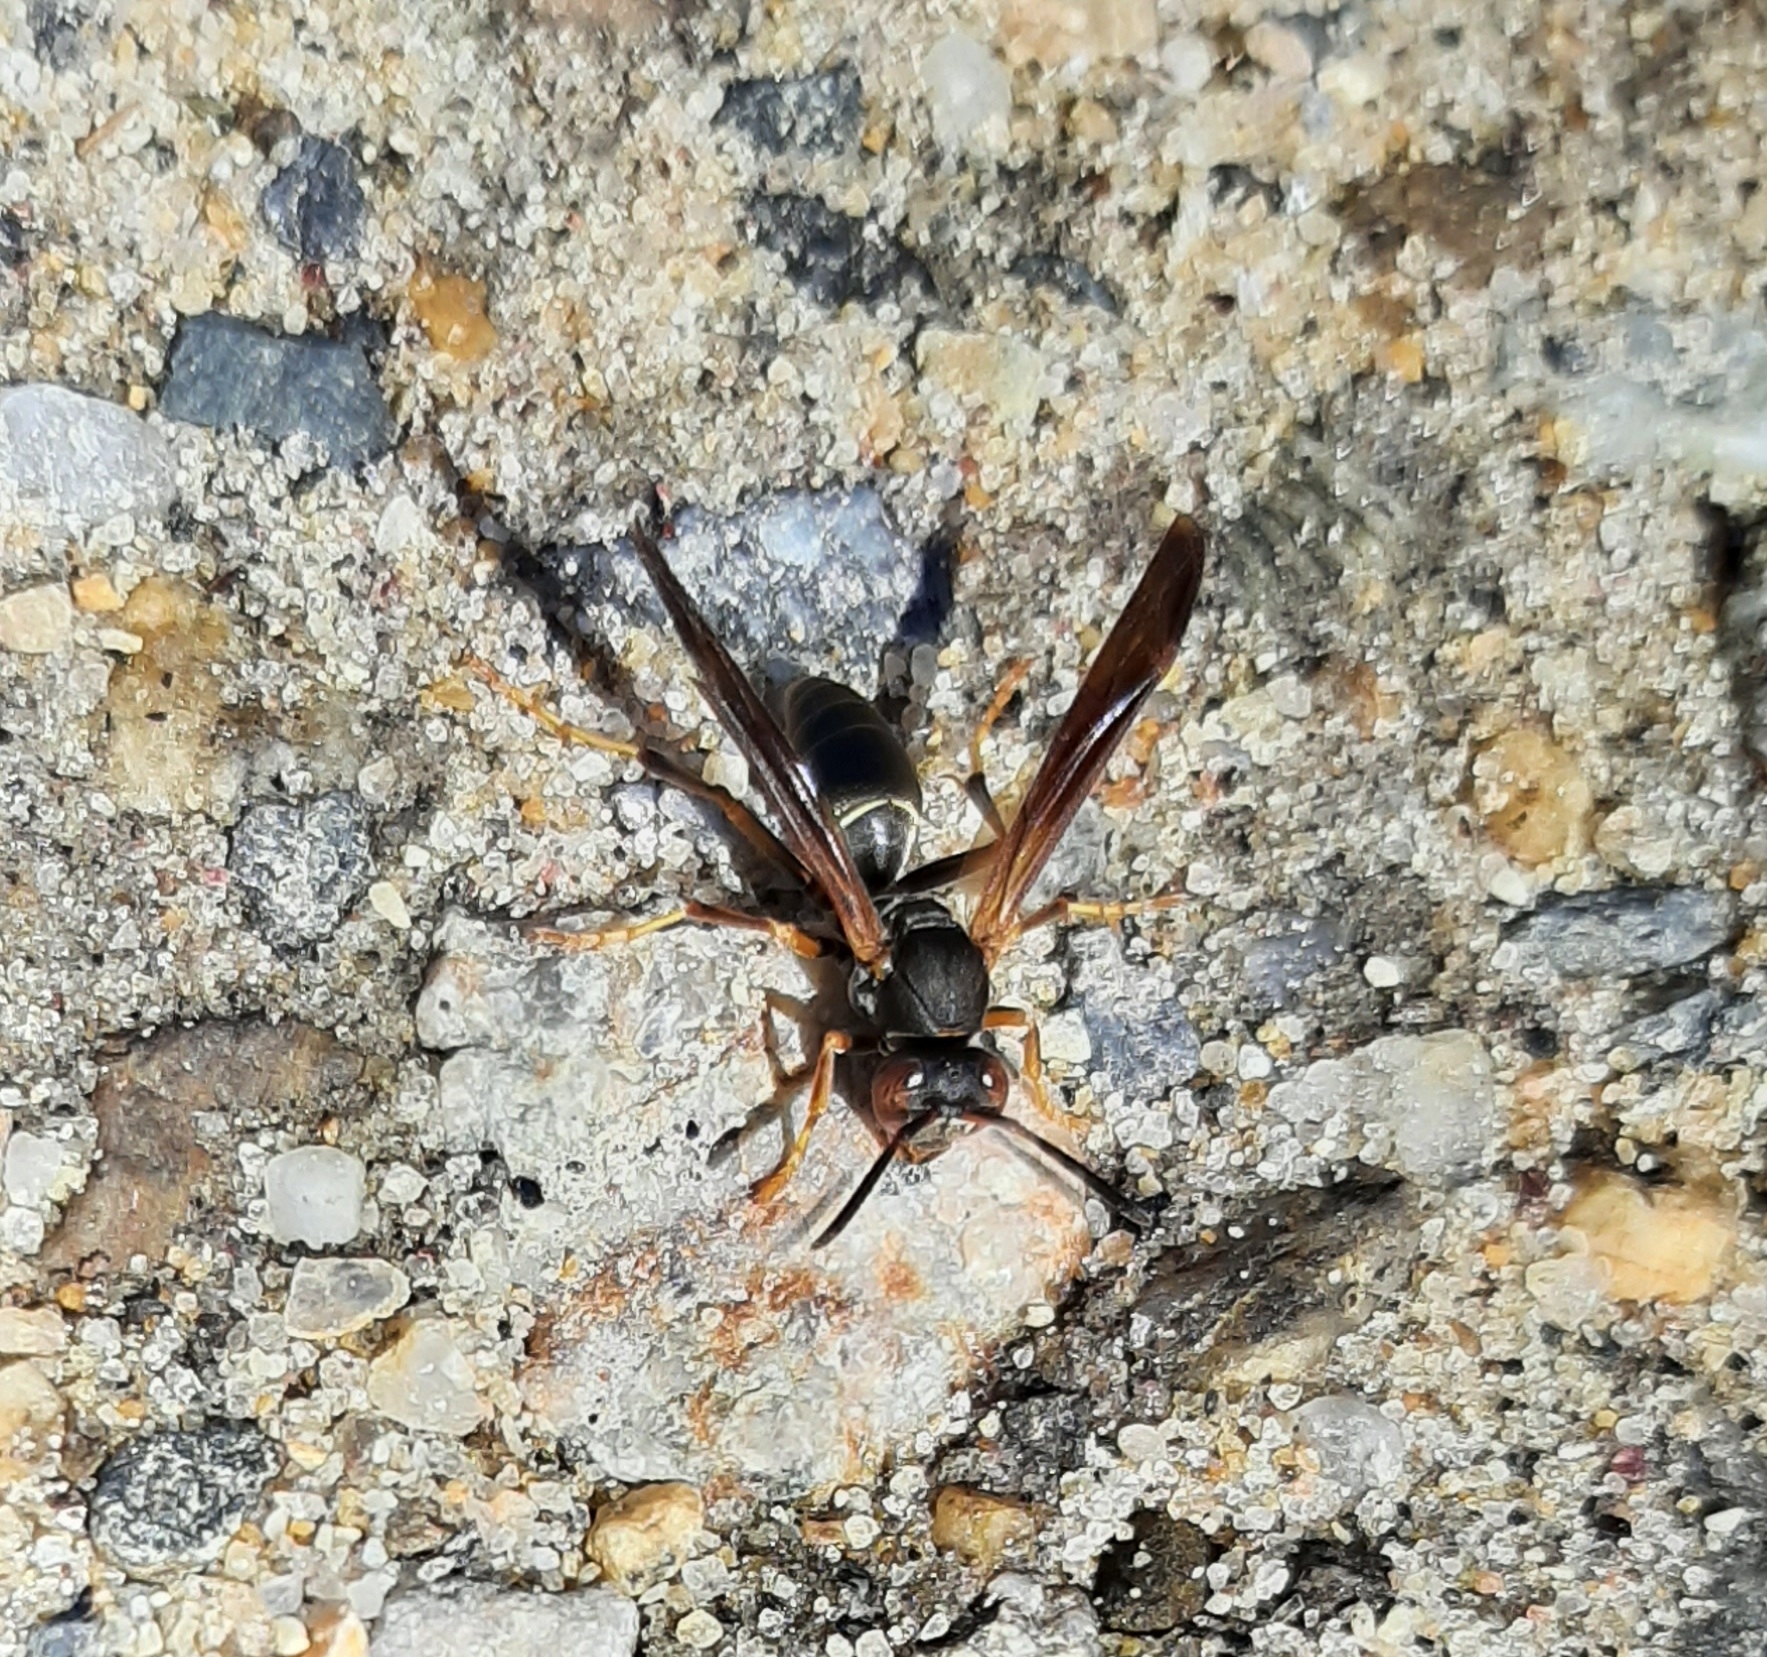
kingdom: Animalia
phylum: Arthropoda
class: Insecta
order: Hymenoptera
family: Eumenidae
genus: Polistes
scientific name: Polistes fuscatus
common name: Dark paper wasp
